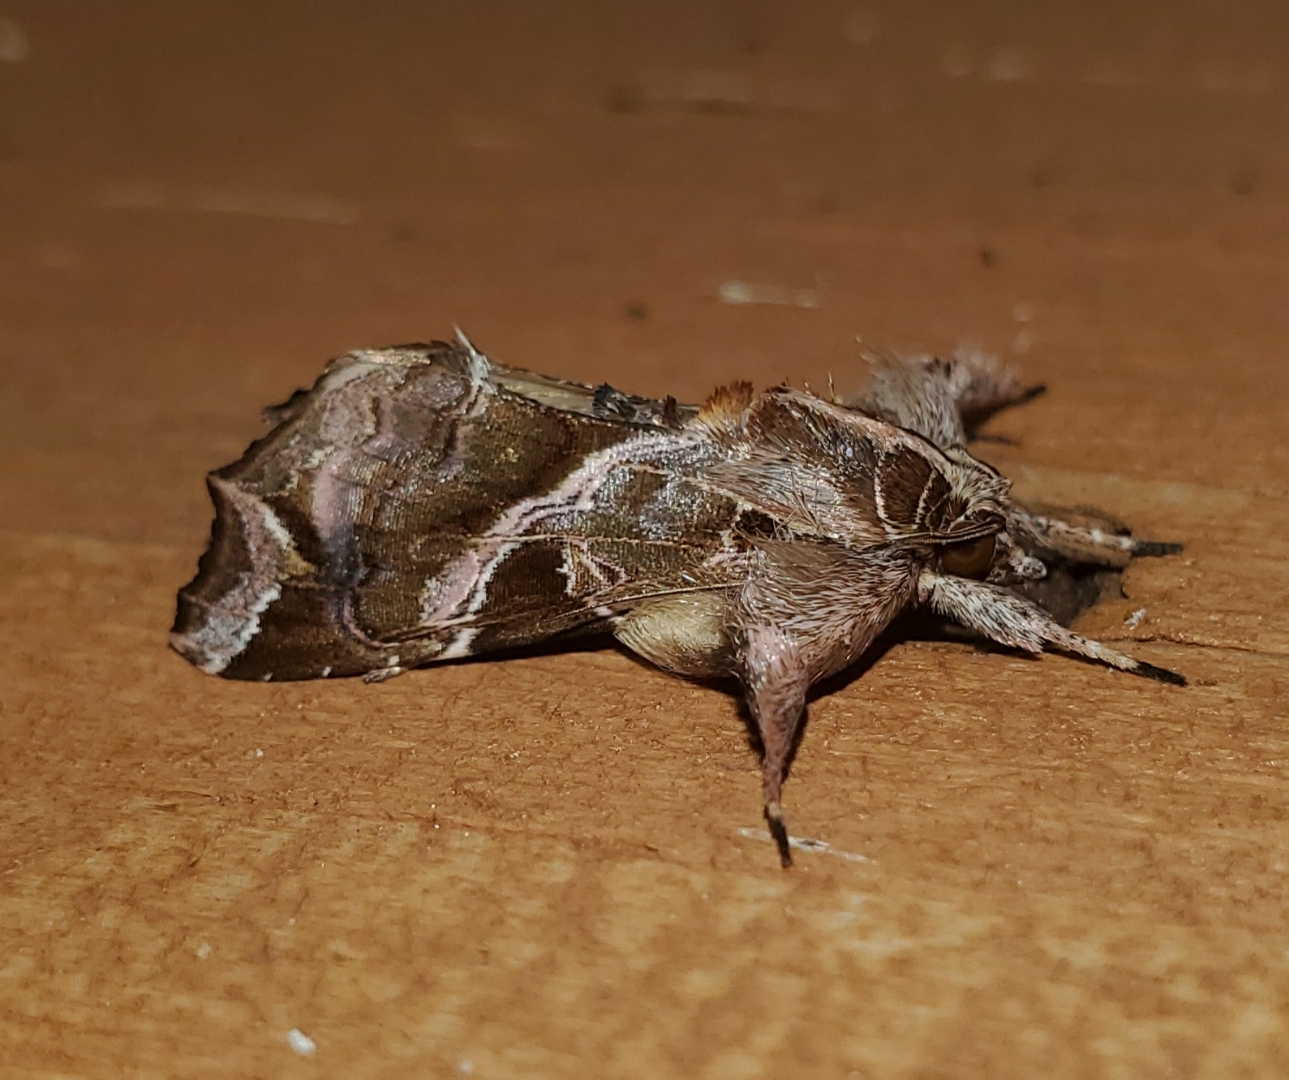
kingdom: Animalia
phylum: Arthropoda
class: Insecta
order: Lepidoptera
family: Noctuidae
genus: Callopistria
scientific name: Callopistria floridensis
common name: Florida fern moth
